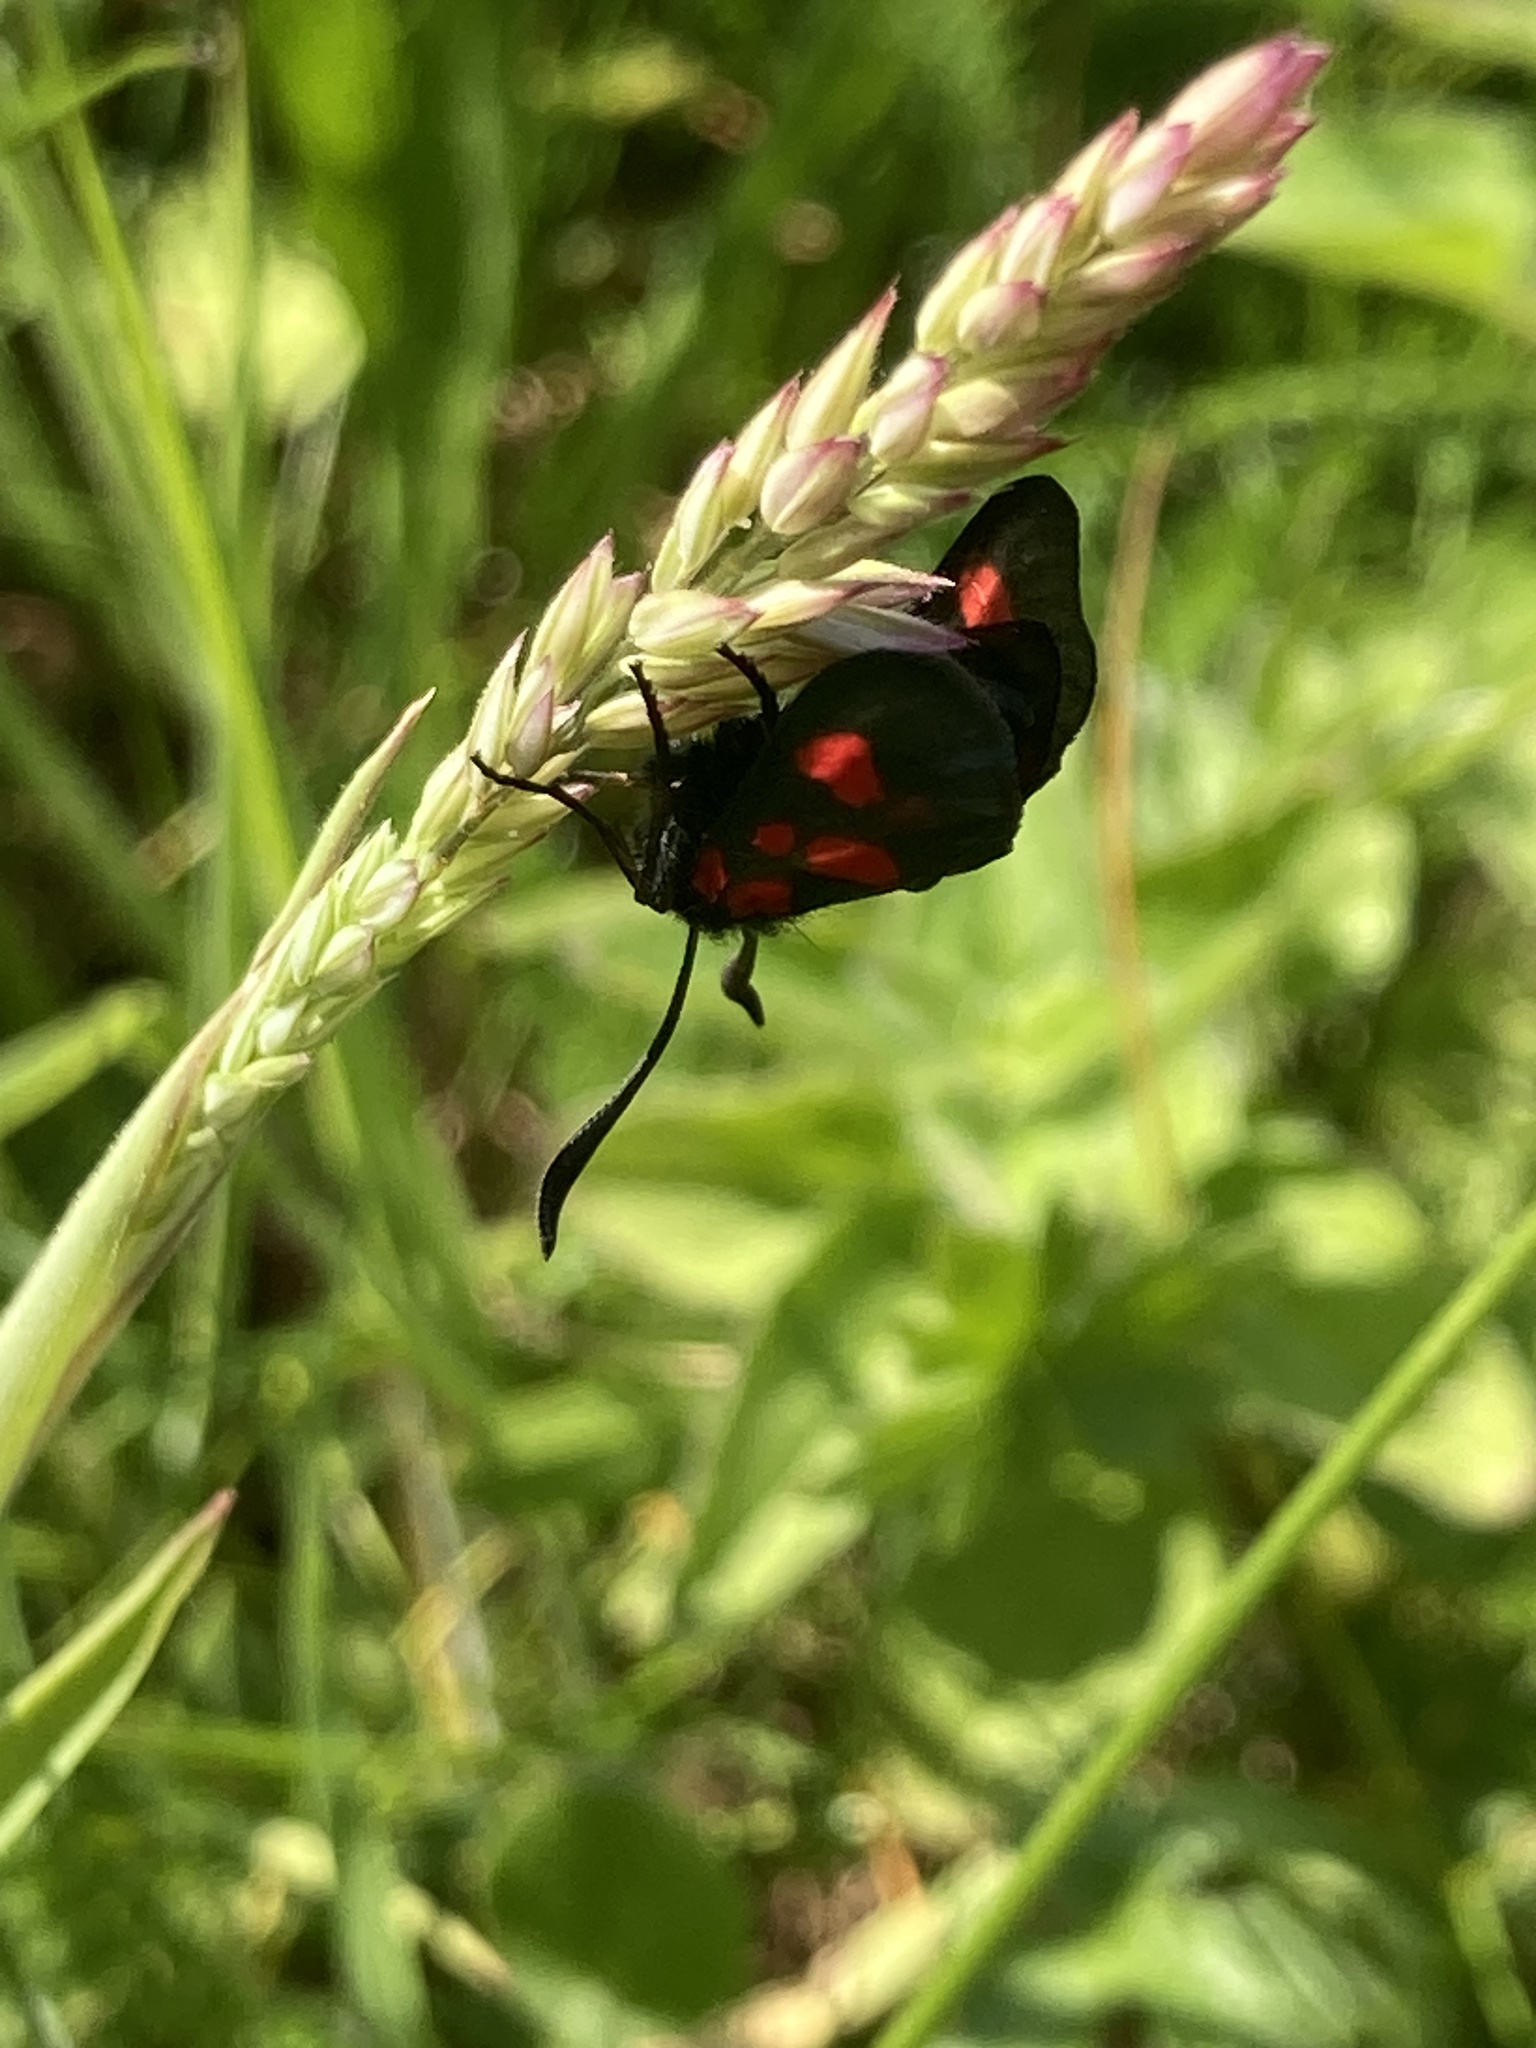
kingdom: Animalia
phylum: Arthropoda
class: Insecta
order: Lepidoptera
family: Zygaenidae
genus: Zygaena
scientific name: Zygaena trifolii
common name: Five-spot burnet
